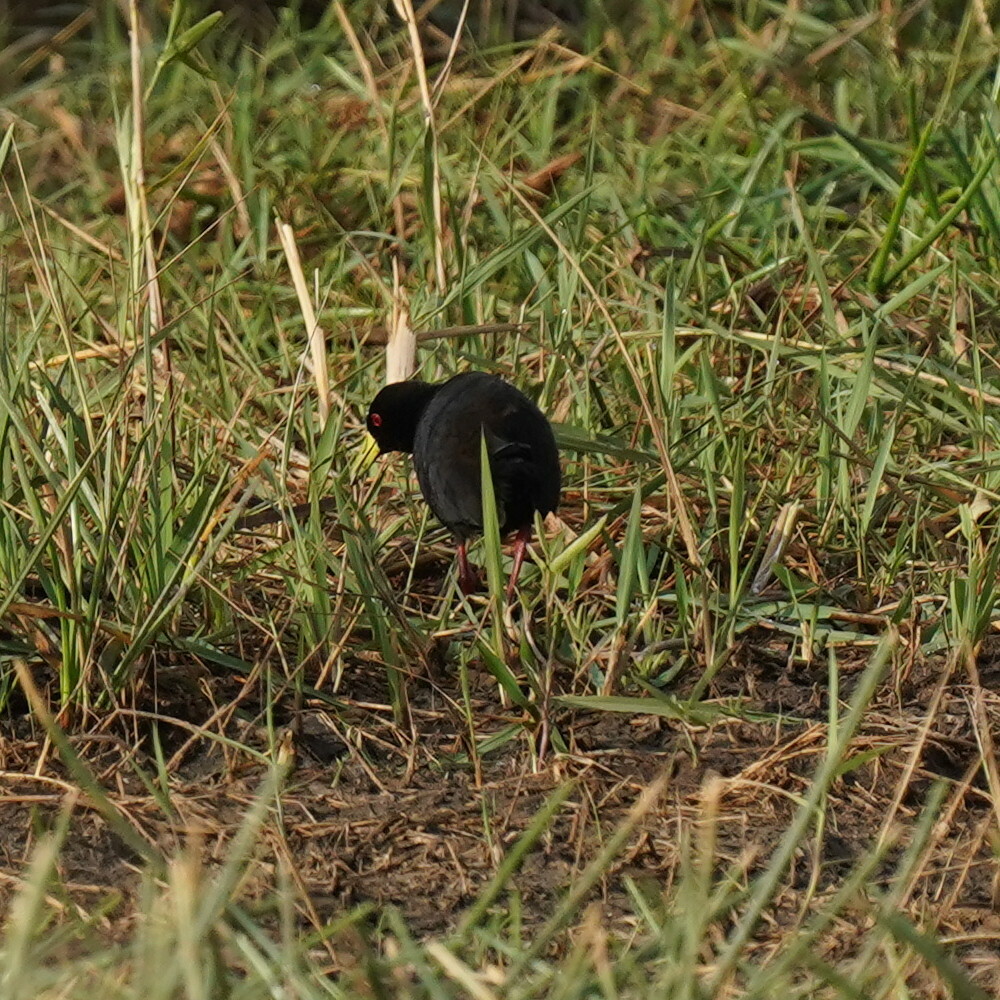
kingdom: Animalia
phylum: Chordata
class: Aves
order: Gruiformes
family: Rallidae
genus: Amaurornis
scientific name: Amaurornis flavirostra
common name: Black crake
